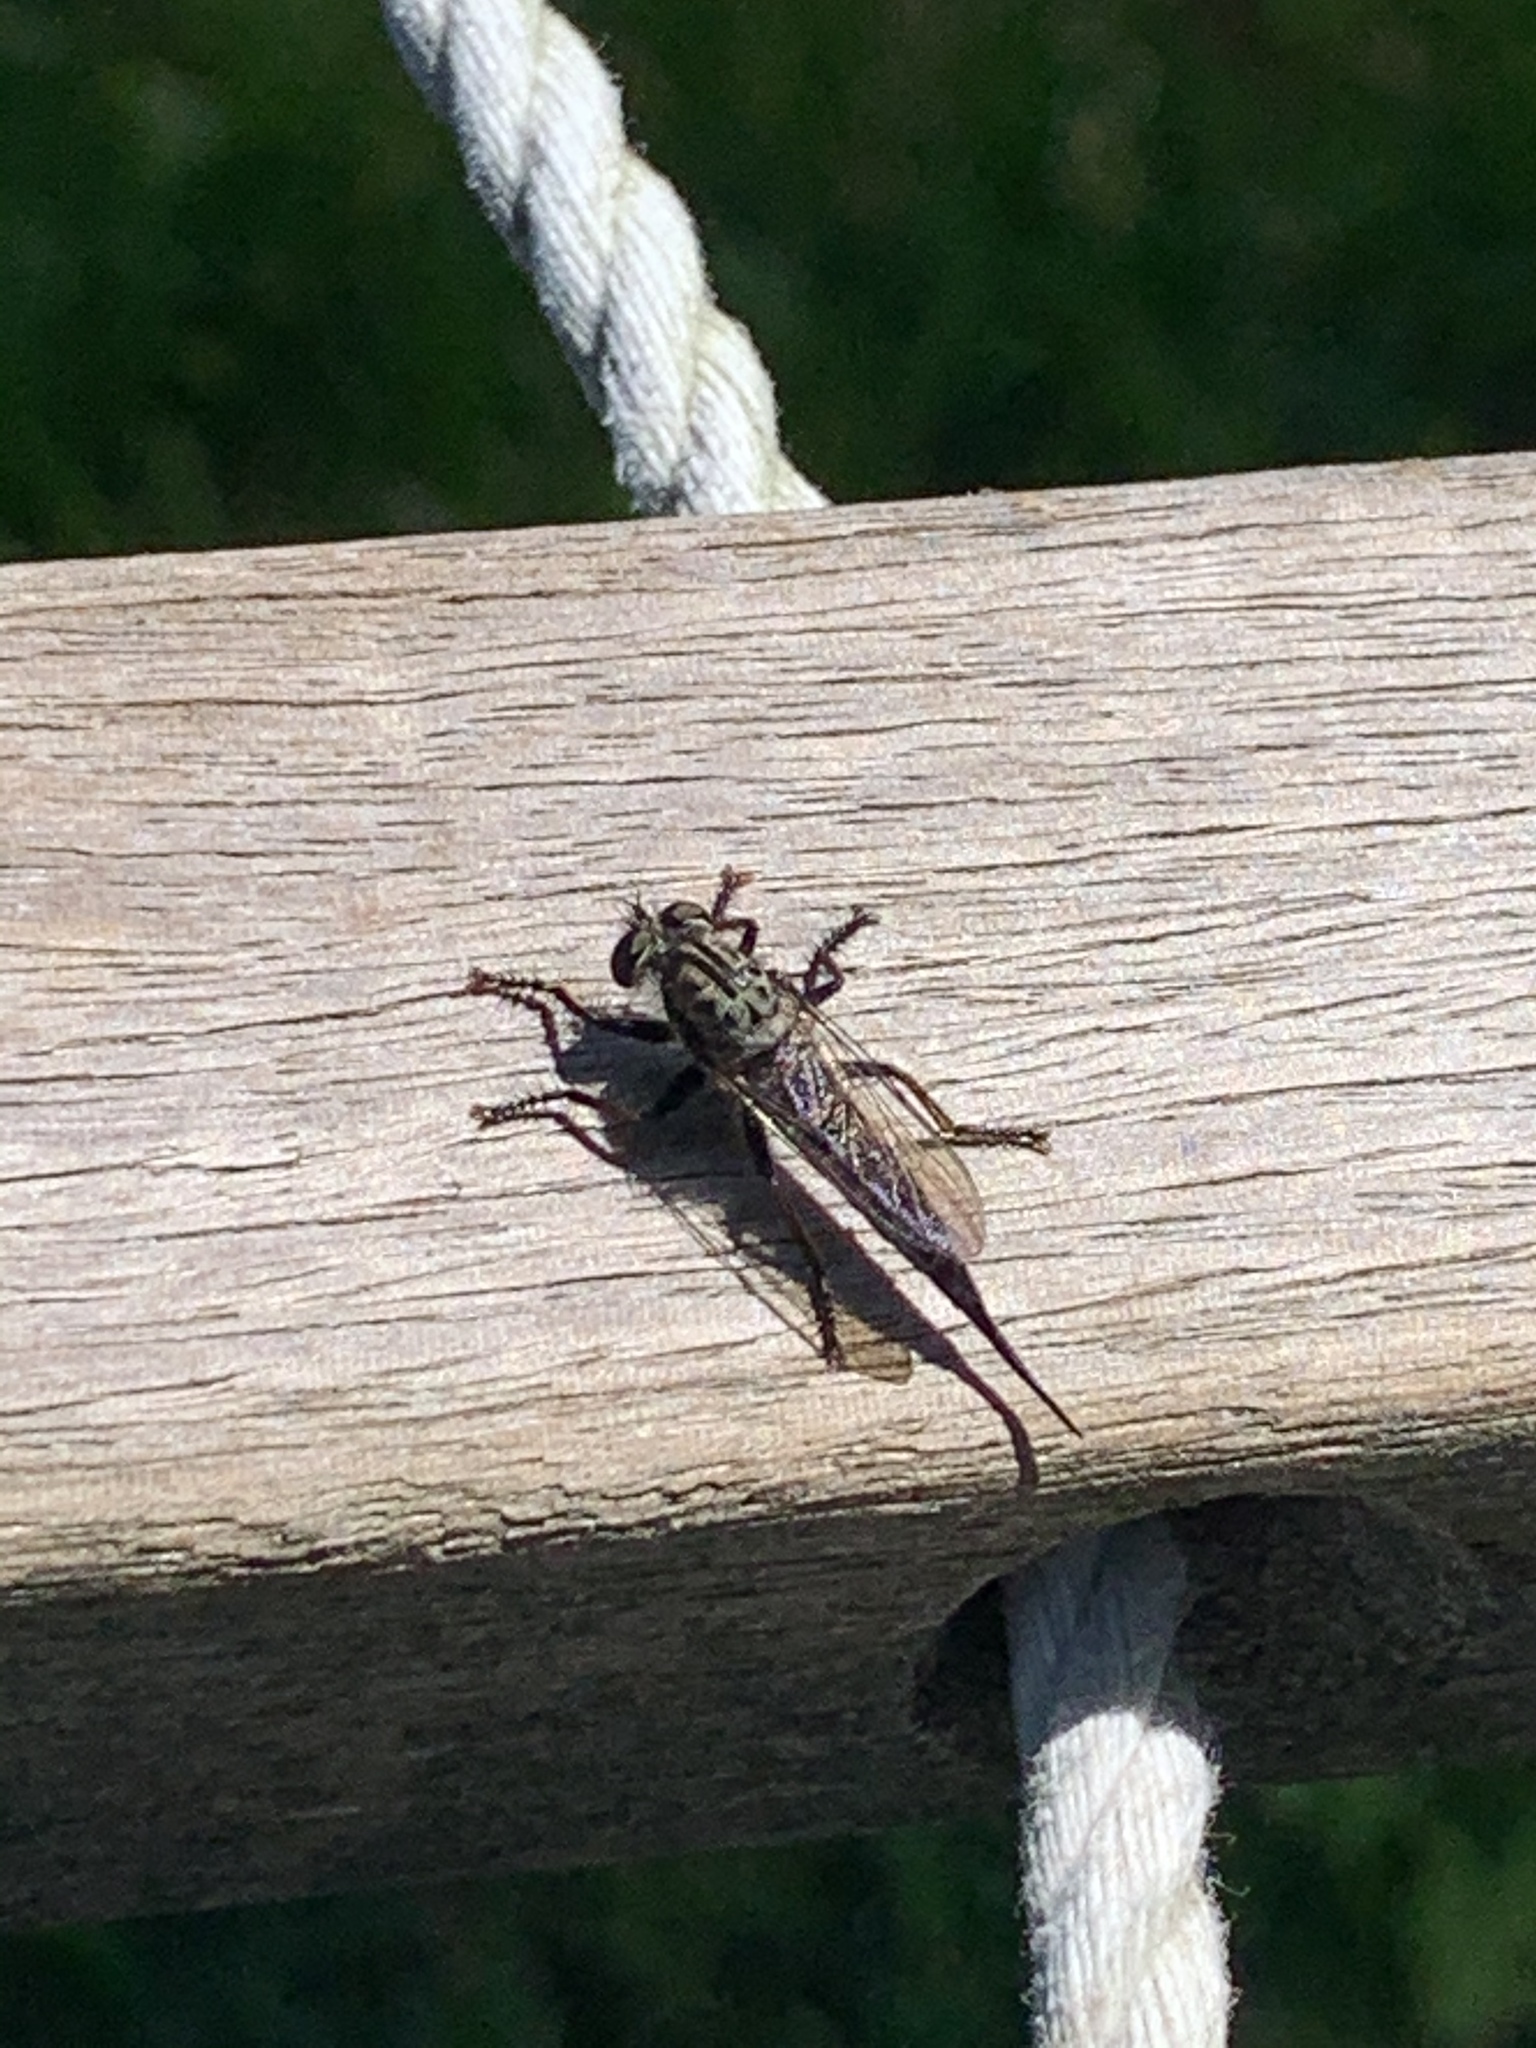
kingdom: Animalia
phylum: Arthropoda
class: Insecta
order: Diptera
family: Asilidae
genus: Efferia
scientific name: Efferia aestuans
